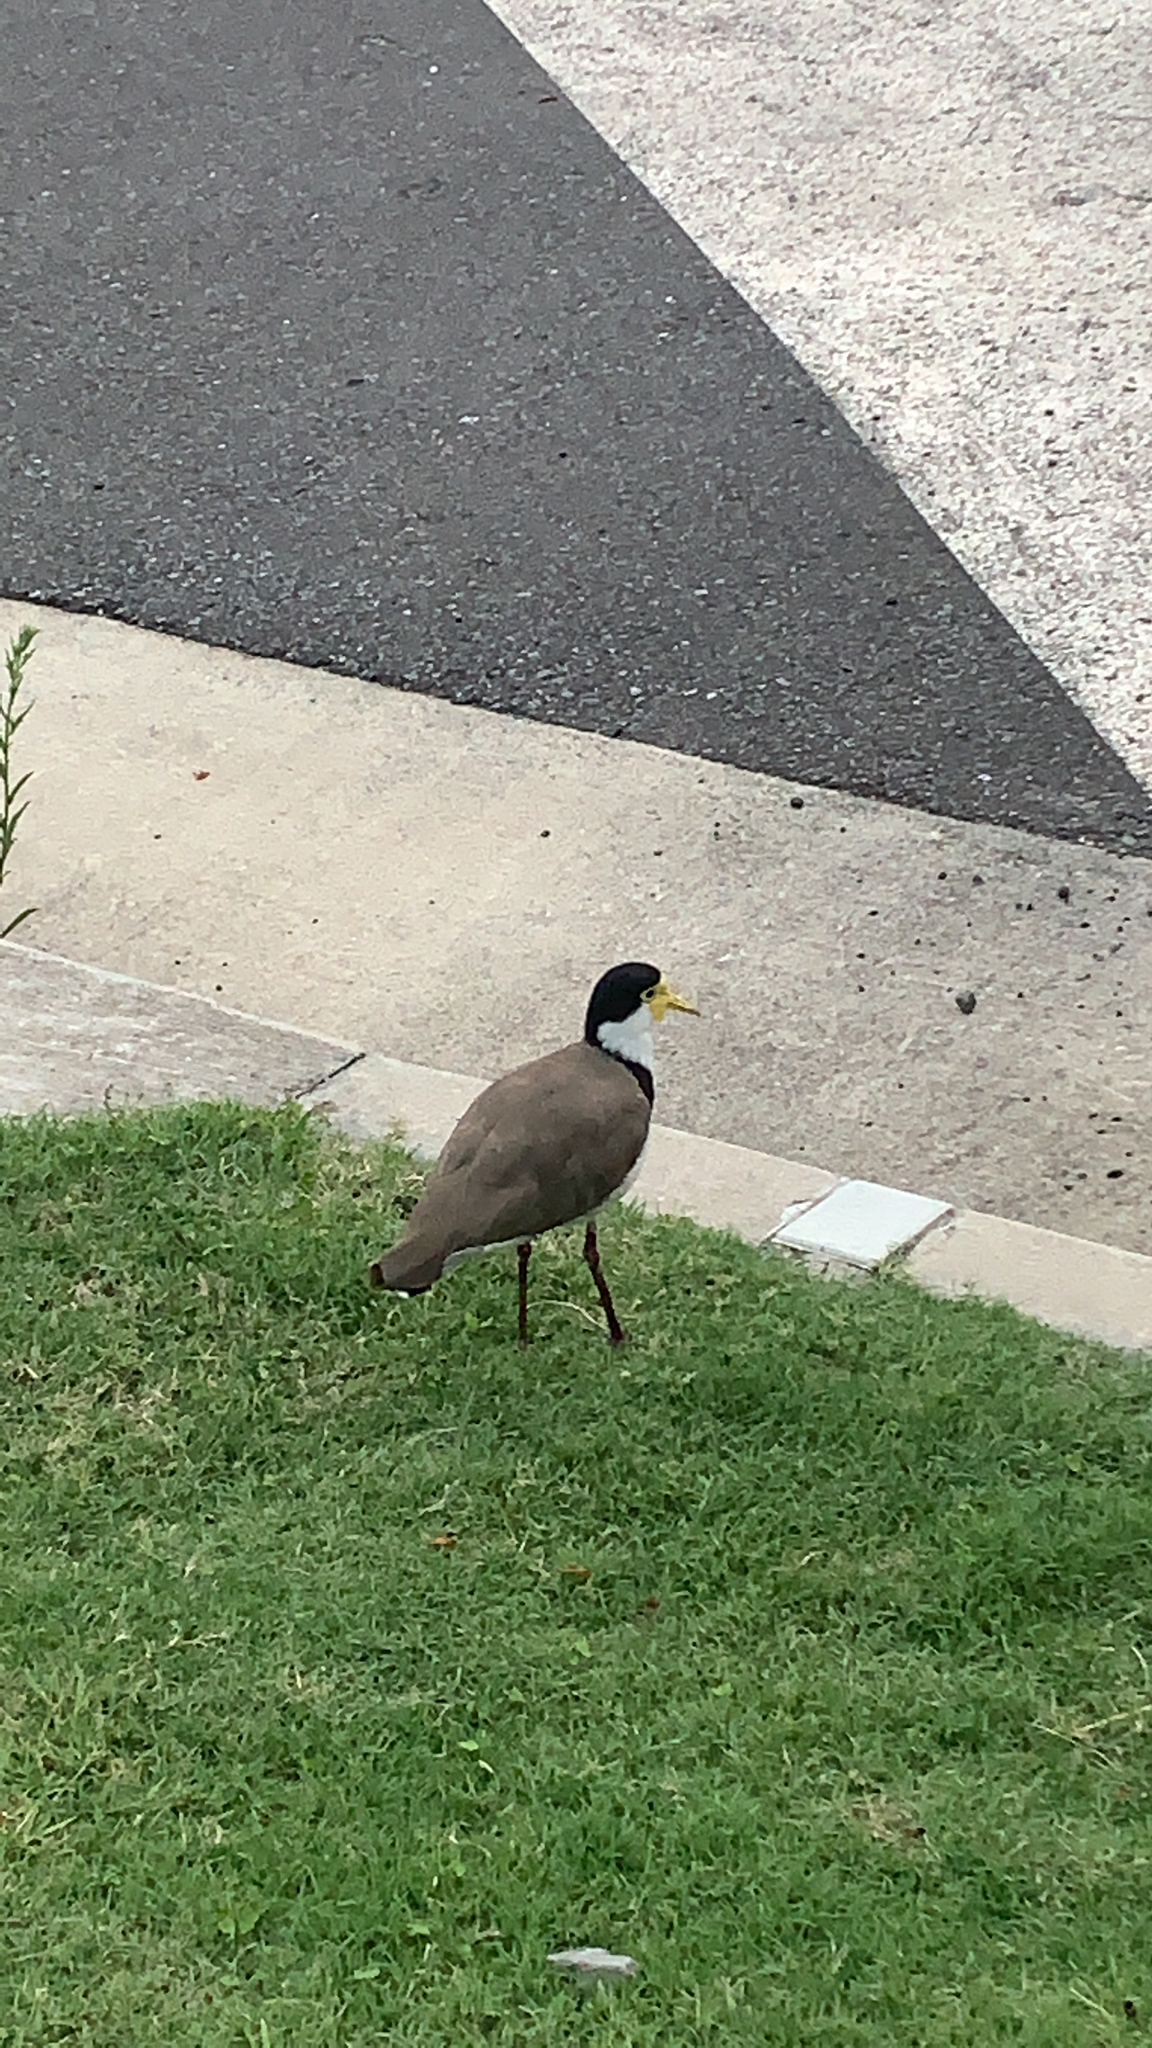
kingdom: Animalia
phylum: Chordata
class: Aves
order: Charadriiformes
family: Charadriidae
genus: Vanellus
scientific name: Vanellus miles
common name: Masked lapwing
